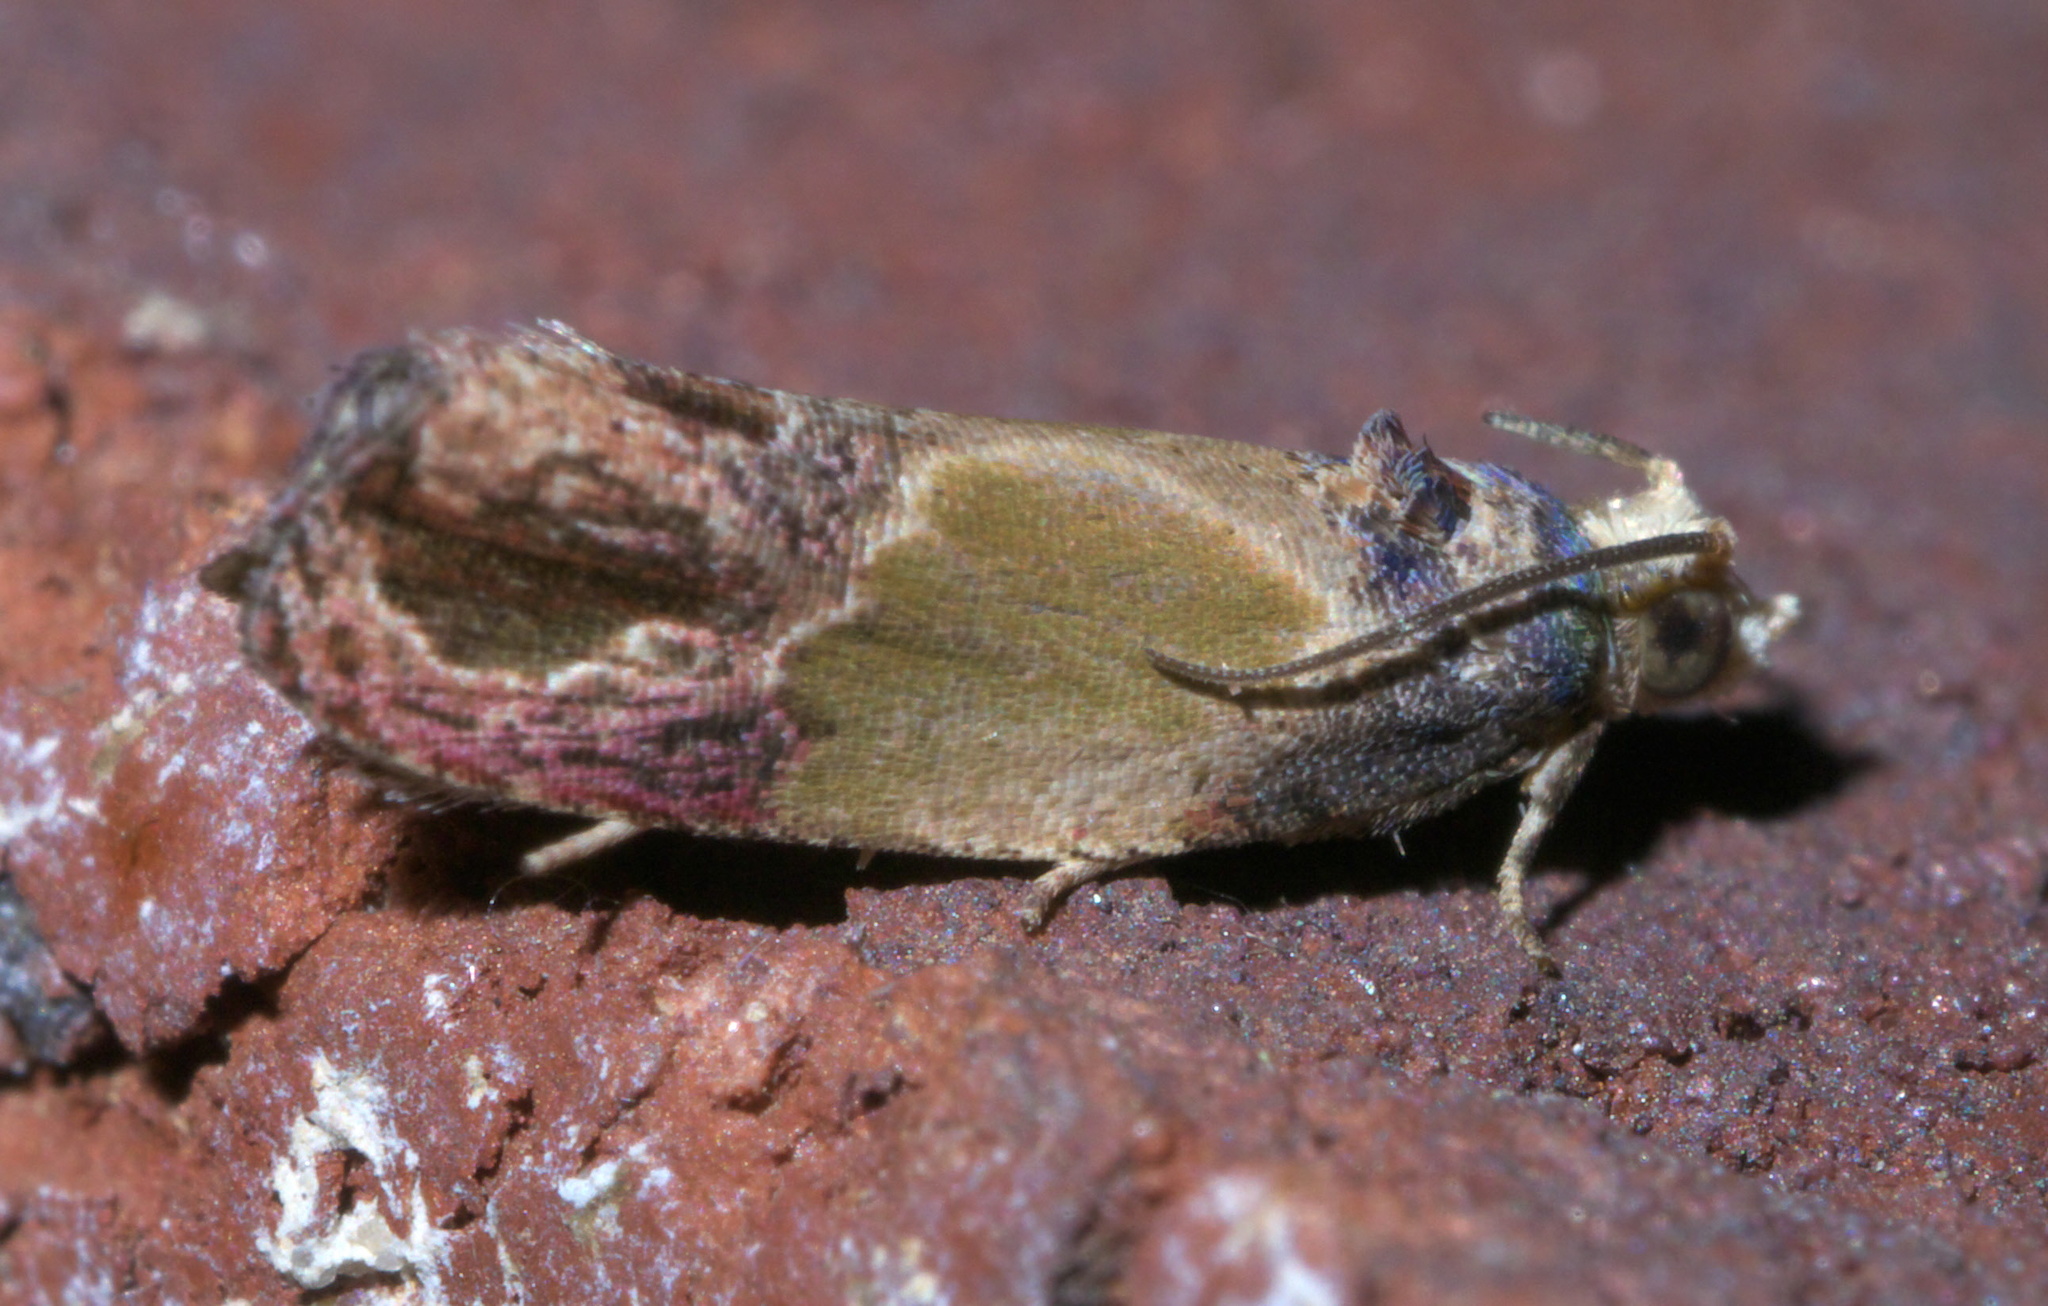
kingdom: Animalia
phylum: Arthropoda
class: Insecta
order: Lepidoptera
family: Tortricidae
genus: Eumarozia
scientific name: Eumarozia malachitana
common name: Sculptured moth
